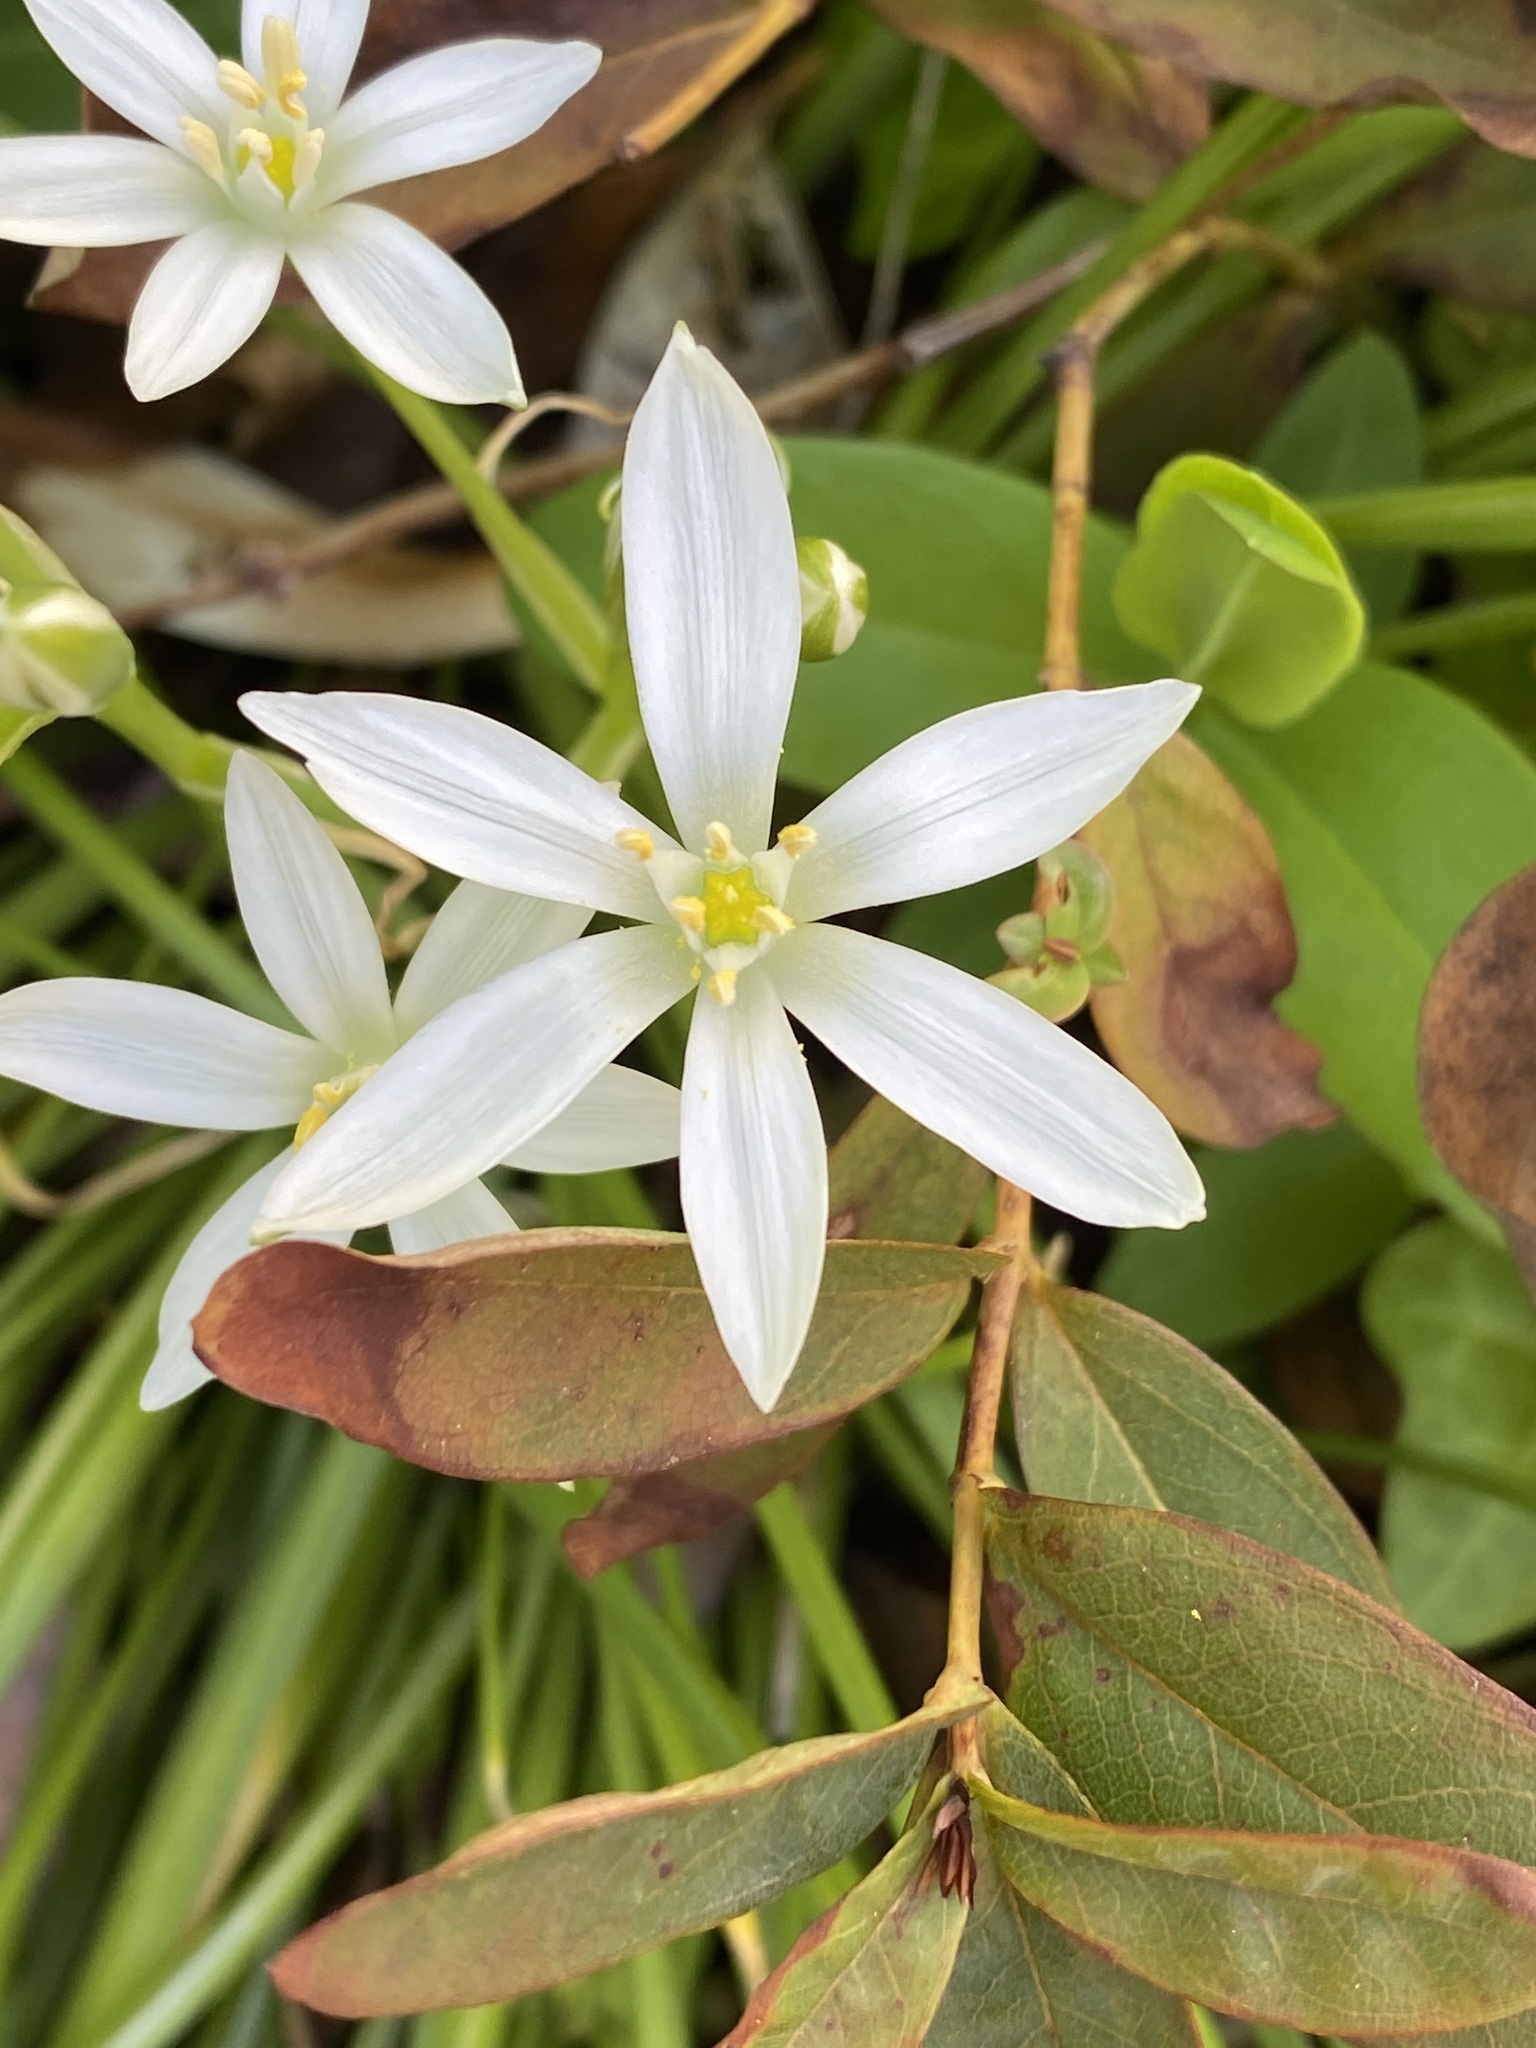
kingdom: Plantae
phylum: Tracheophyta
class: Liliopsida
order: Asparagales
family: Asparagaceae
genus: Ornithogalum
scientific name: Ornithogalum umbellatum
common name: Garden star-of-bethlehem
